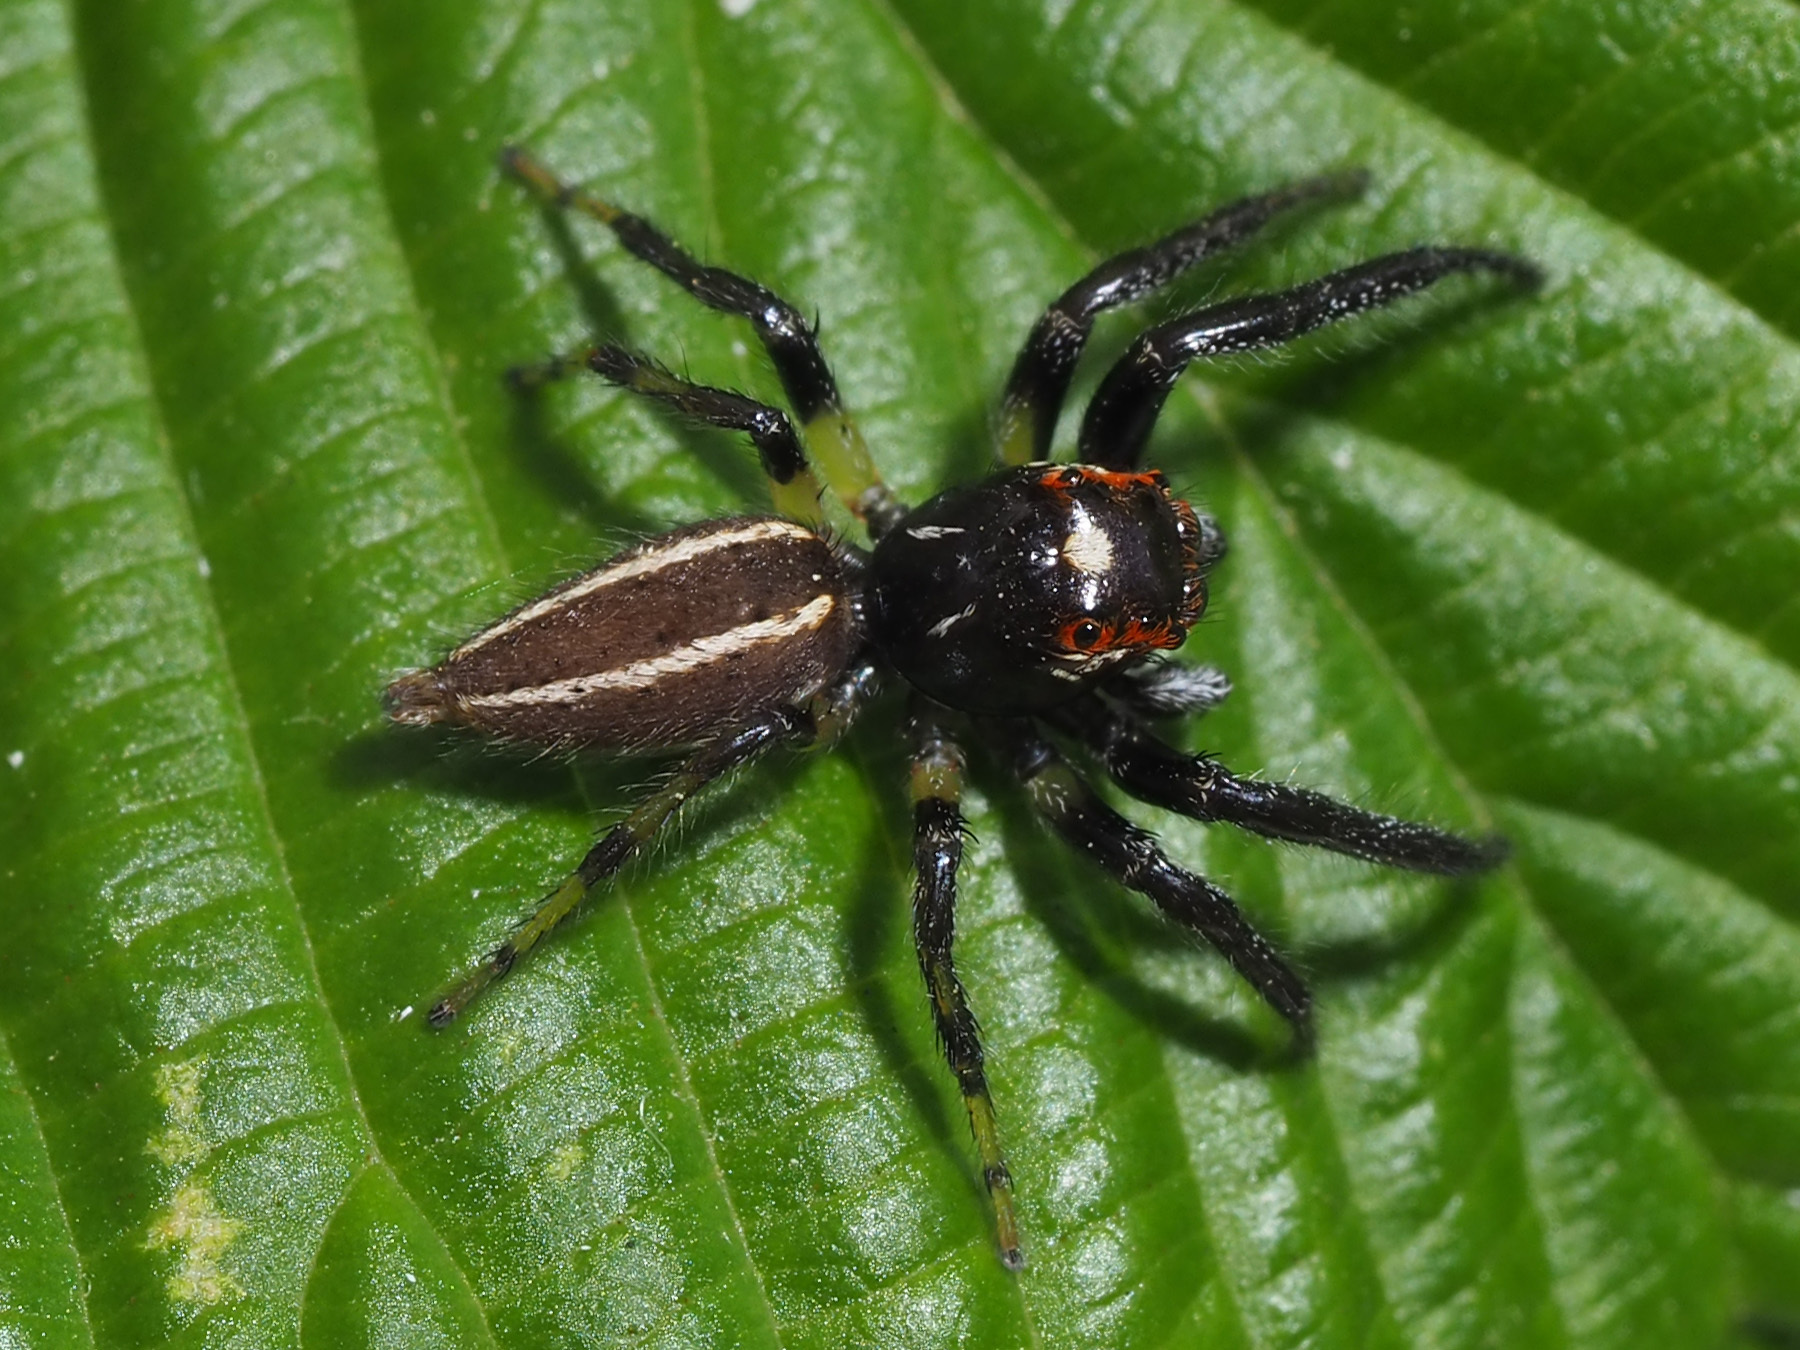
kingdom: Animalia
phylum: Arthropoda
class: Arachnida
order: Araneae
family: Salticidae
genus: Colonus
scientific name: Colonus sylvanus
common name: Jumping spiders
